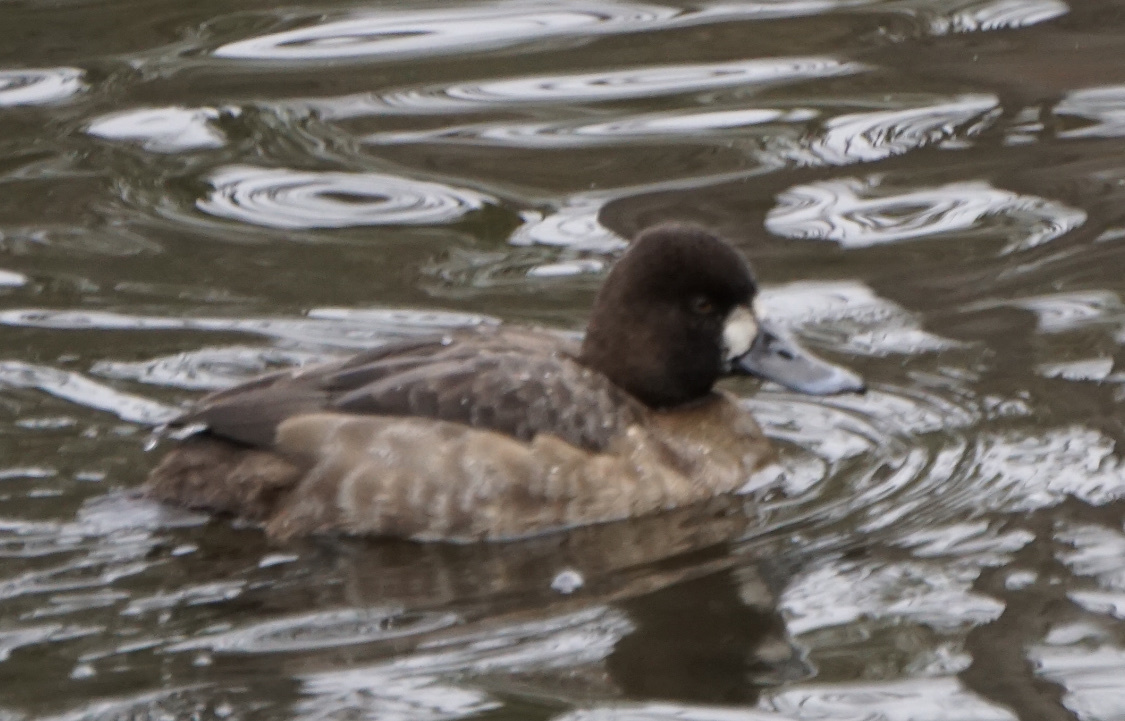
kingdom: Animalia
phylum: Chordata
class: Aves
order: Anseriformes
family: Anatidae
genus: Aythya
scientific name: Aythya affinis
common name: Lesser scaup
